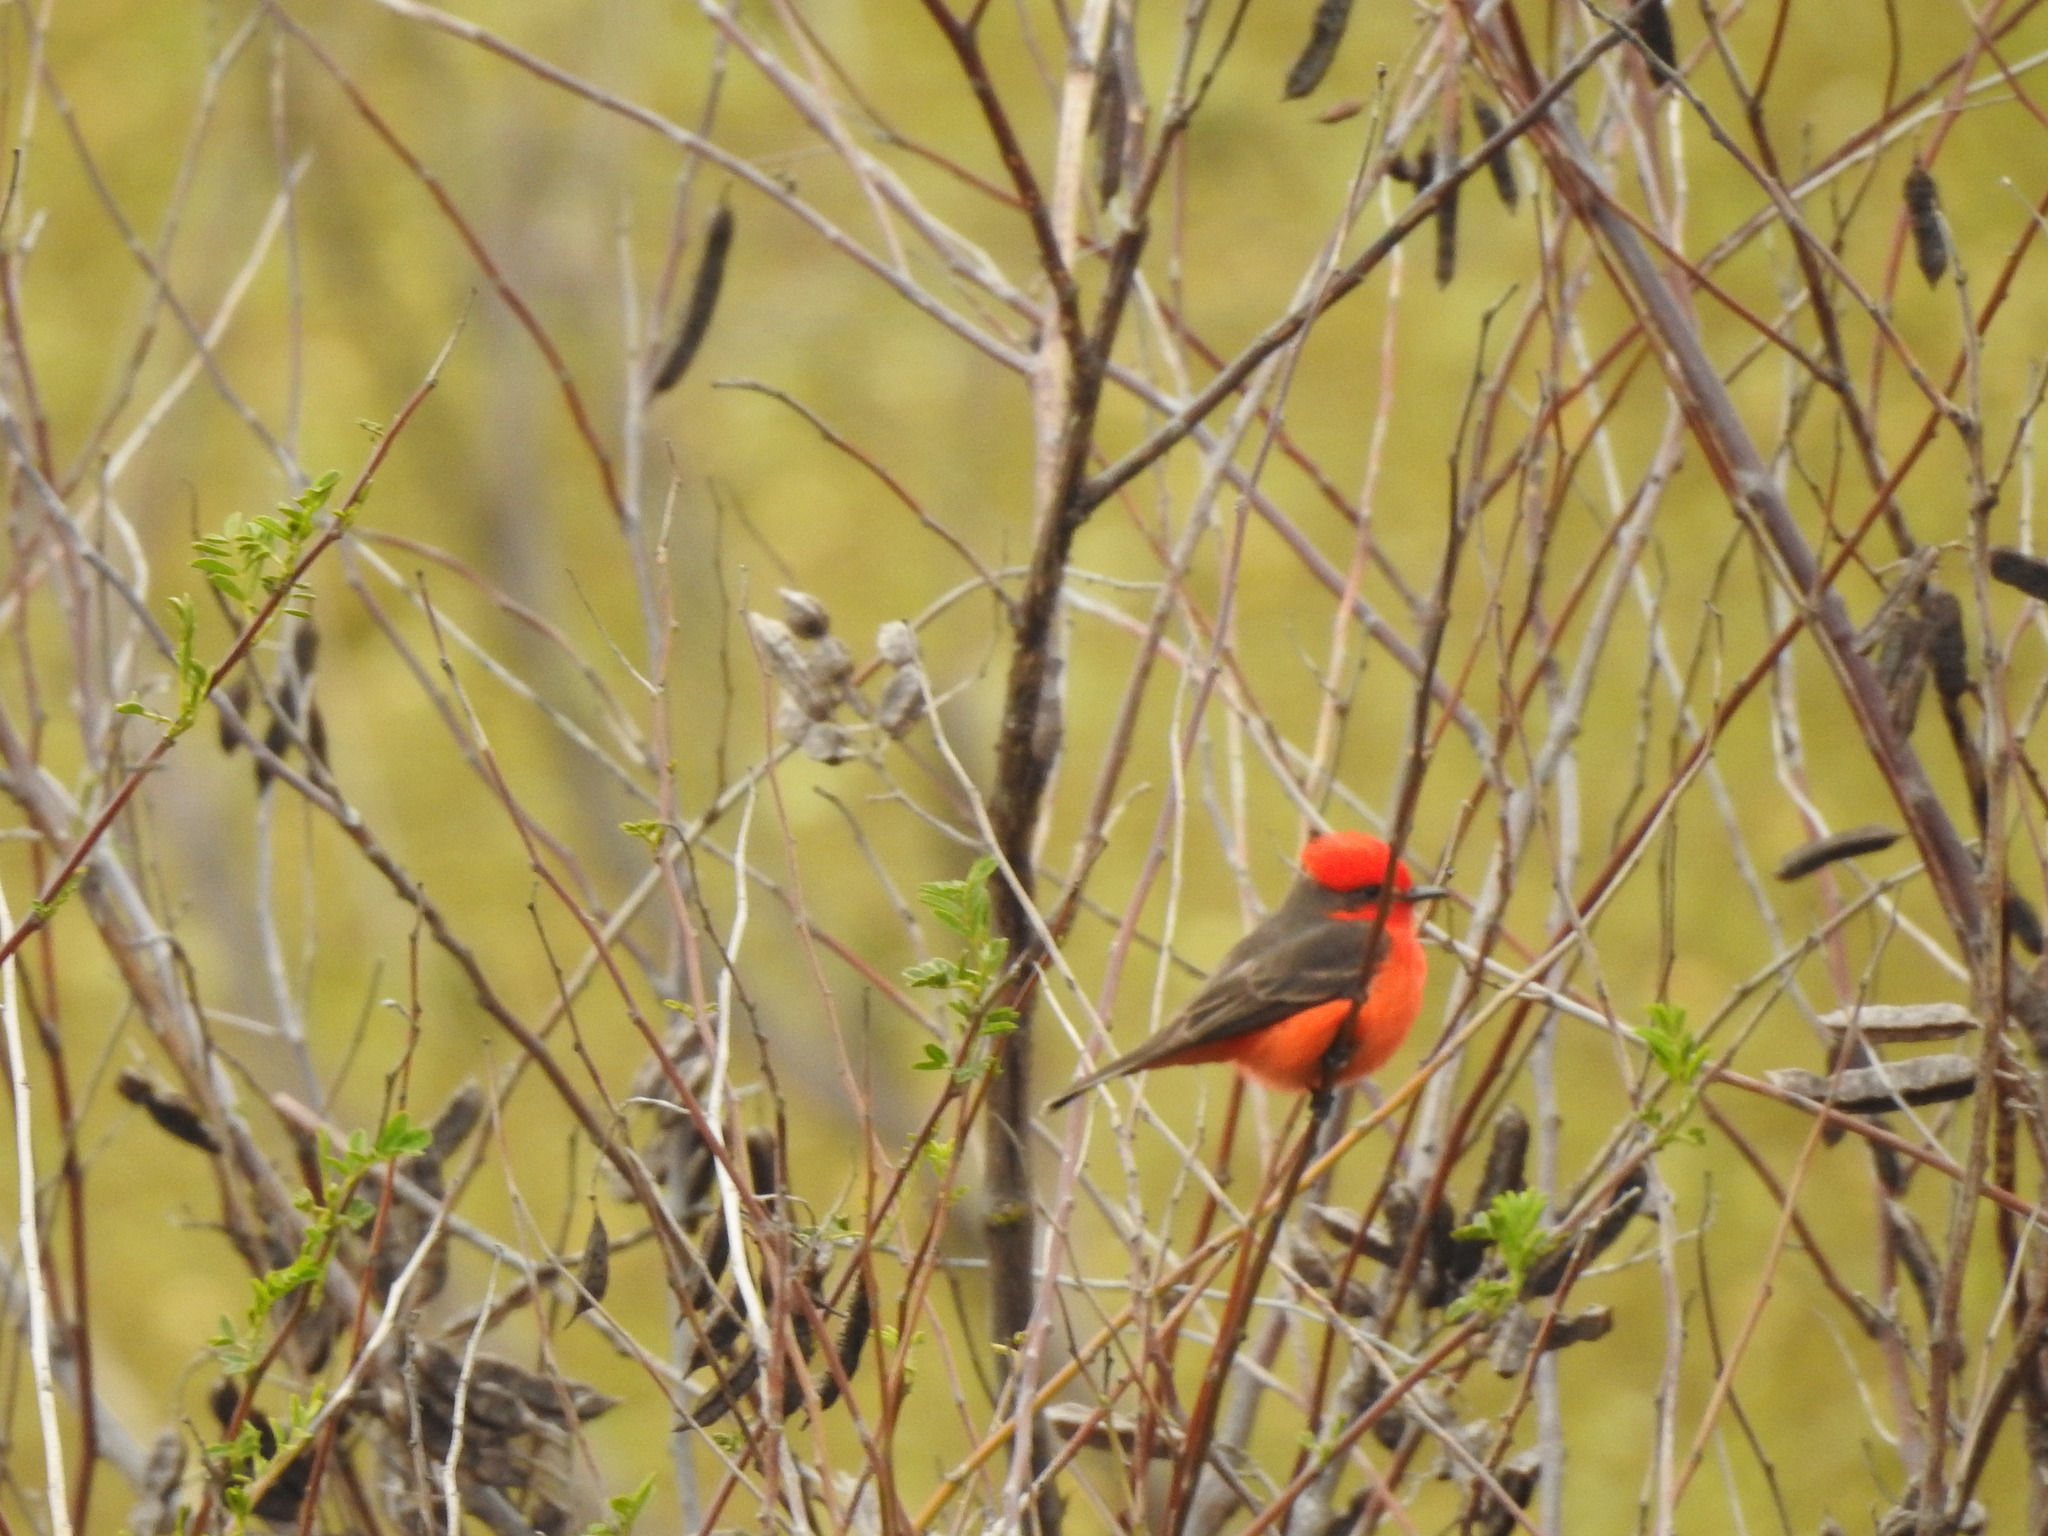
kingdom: Animalia
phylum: Chordata
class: Aves
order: Passeriformes
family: Tyrannidae
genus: Pyrocephalus
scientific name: Pyrocephalus rubinus
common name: Vermilion flycatcher
